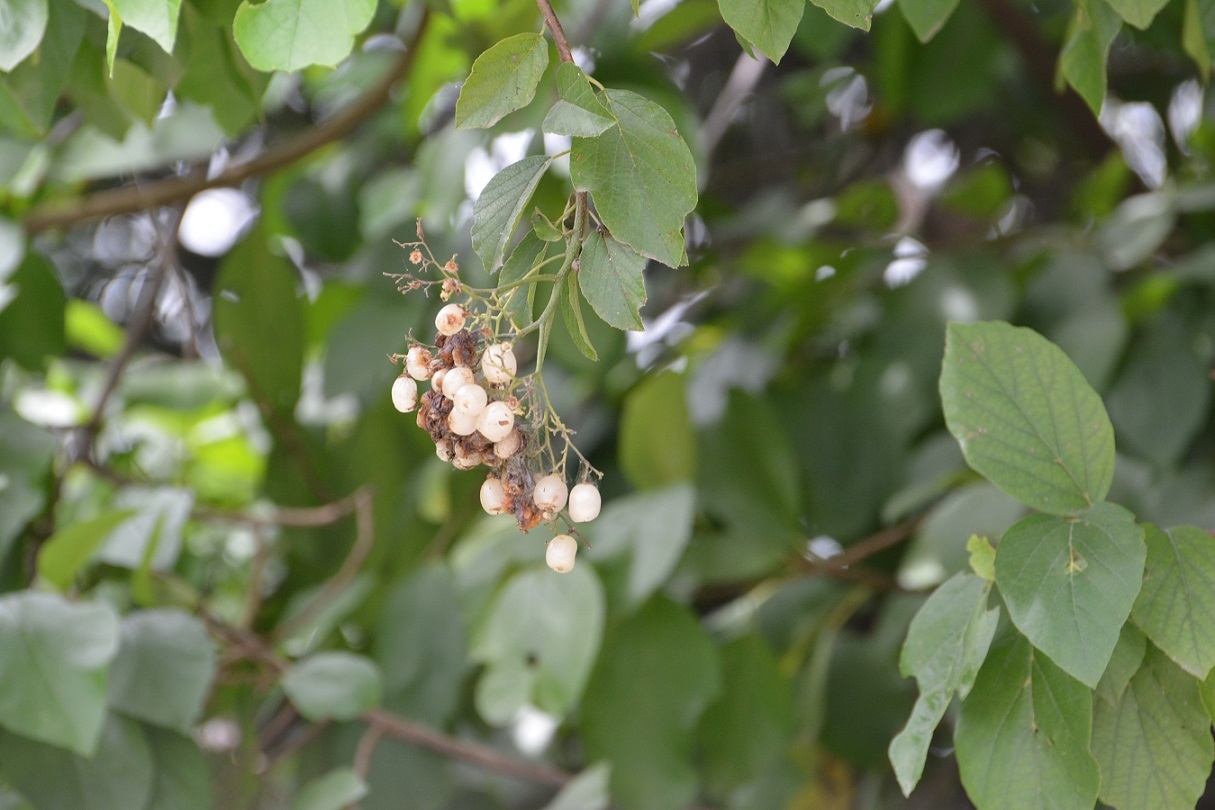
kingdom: Plantae
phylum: Tracheophyta
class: Magnoliopsida
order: Boraginales
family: Cordiaceae
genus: Cordia
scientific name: Cordia dentata
